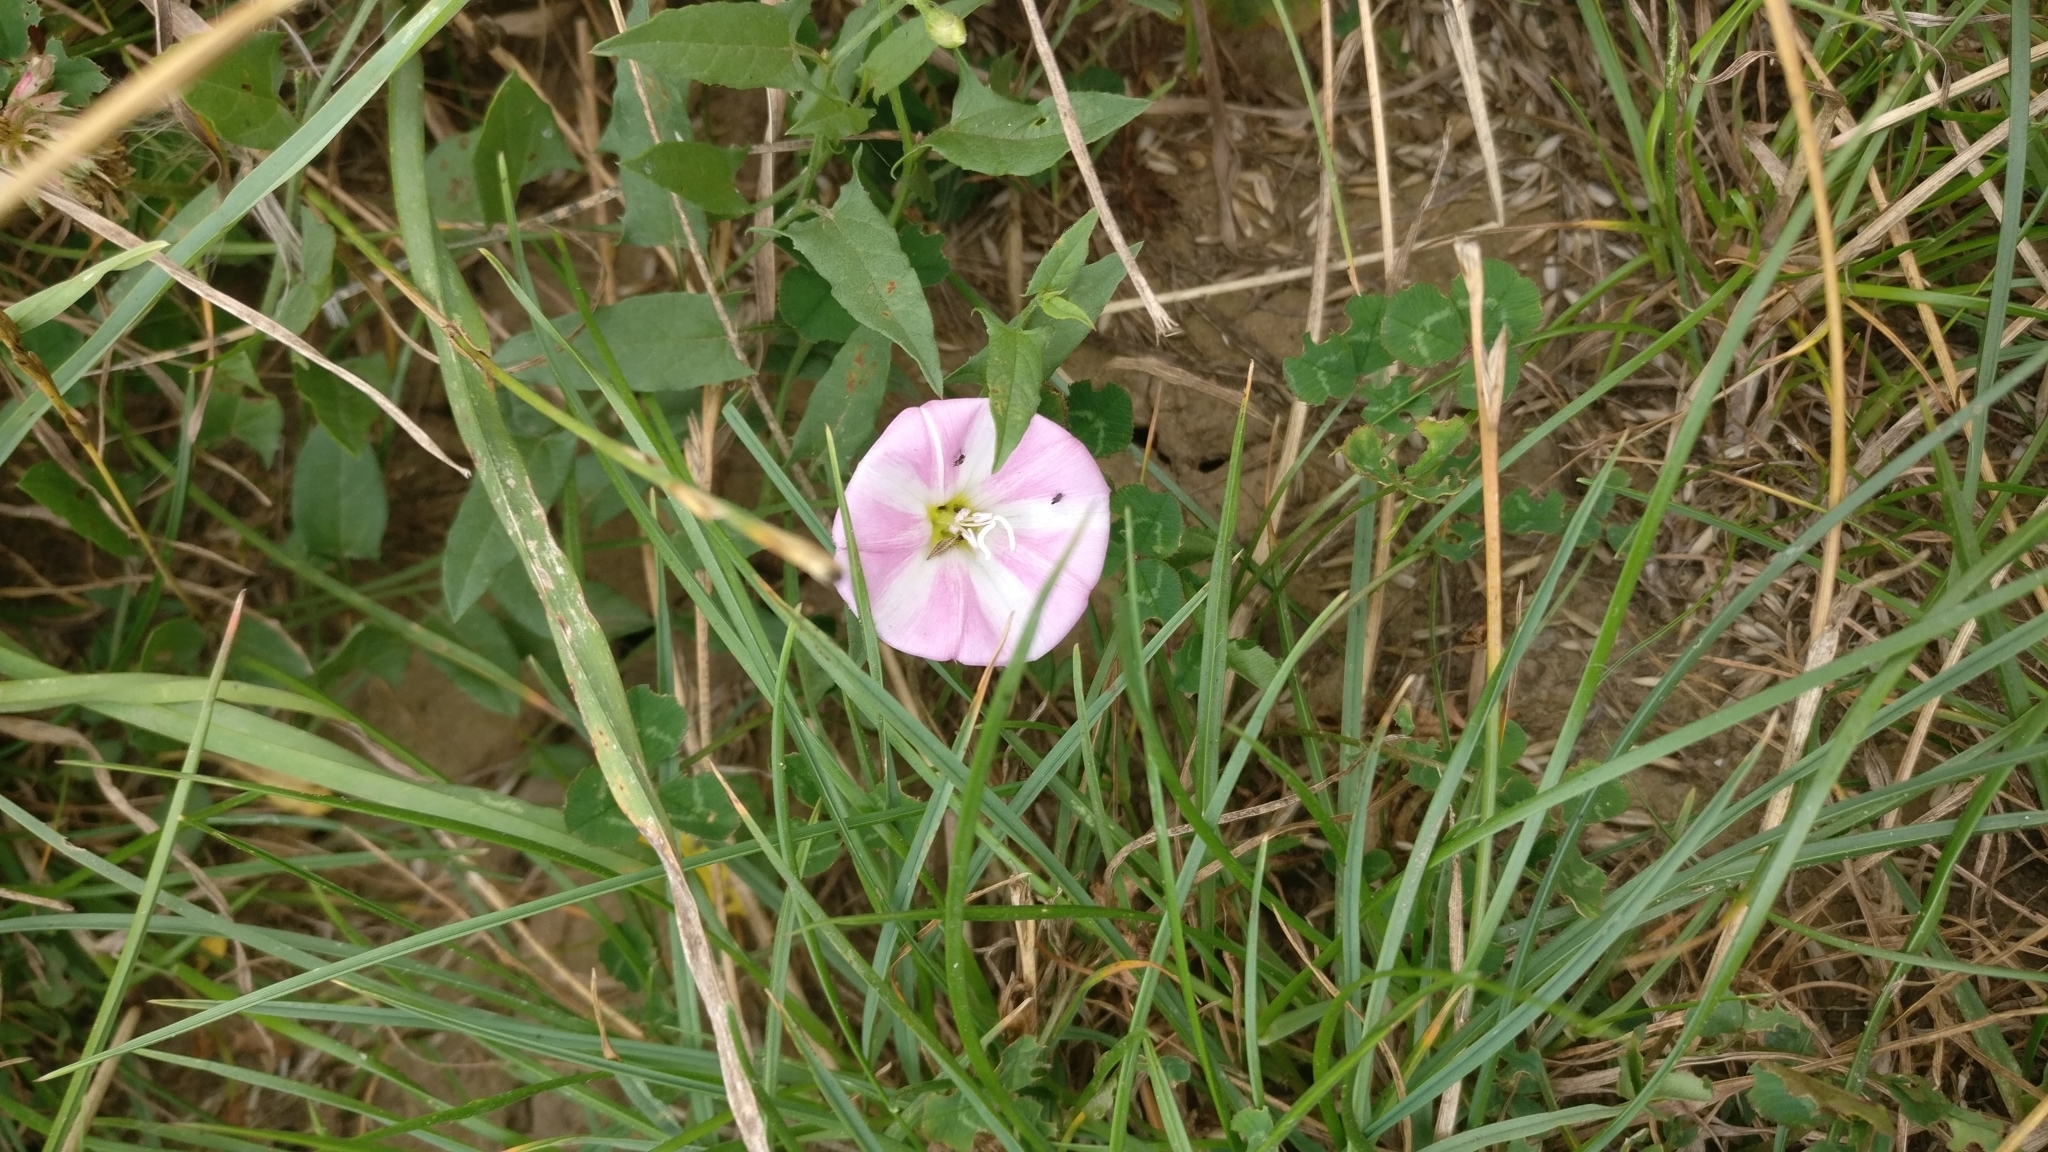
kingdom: Plantae
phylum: Tracheophyta
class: Magnoliopsida
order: Solanales
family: Convolvulaceae
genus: Convolvulus
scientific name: Convolvulus arvensis
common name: Field bindweed
